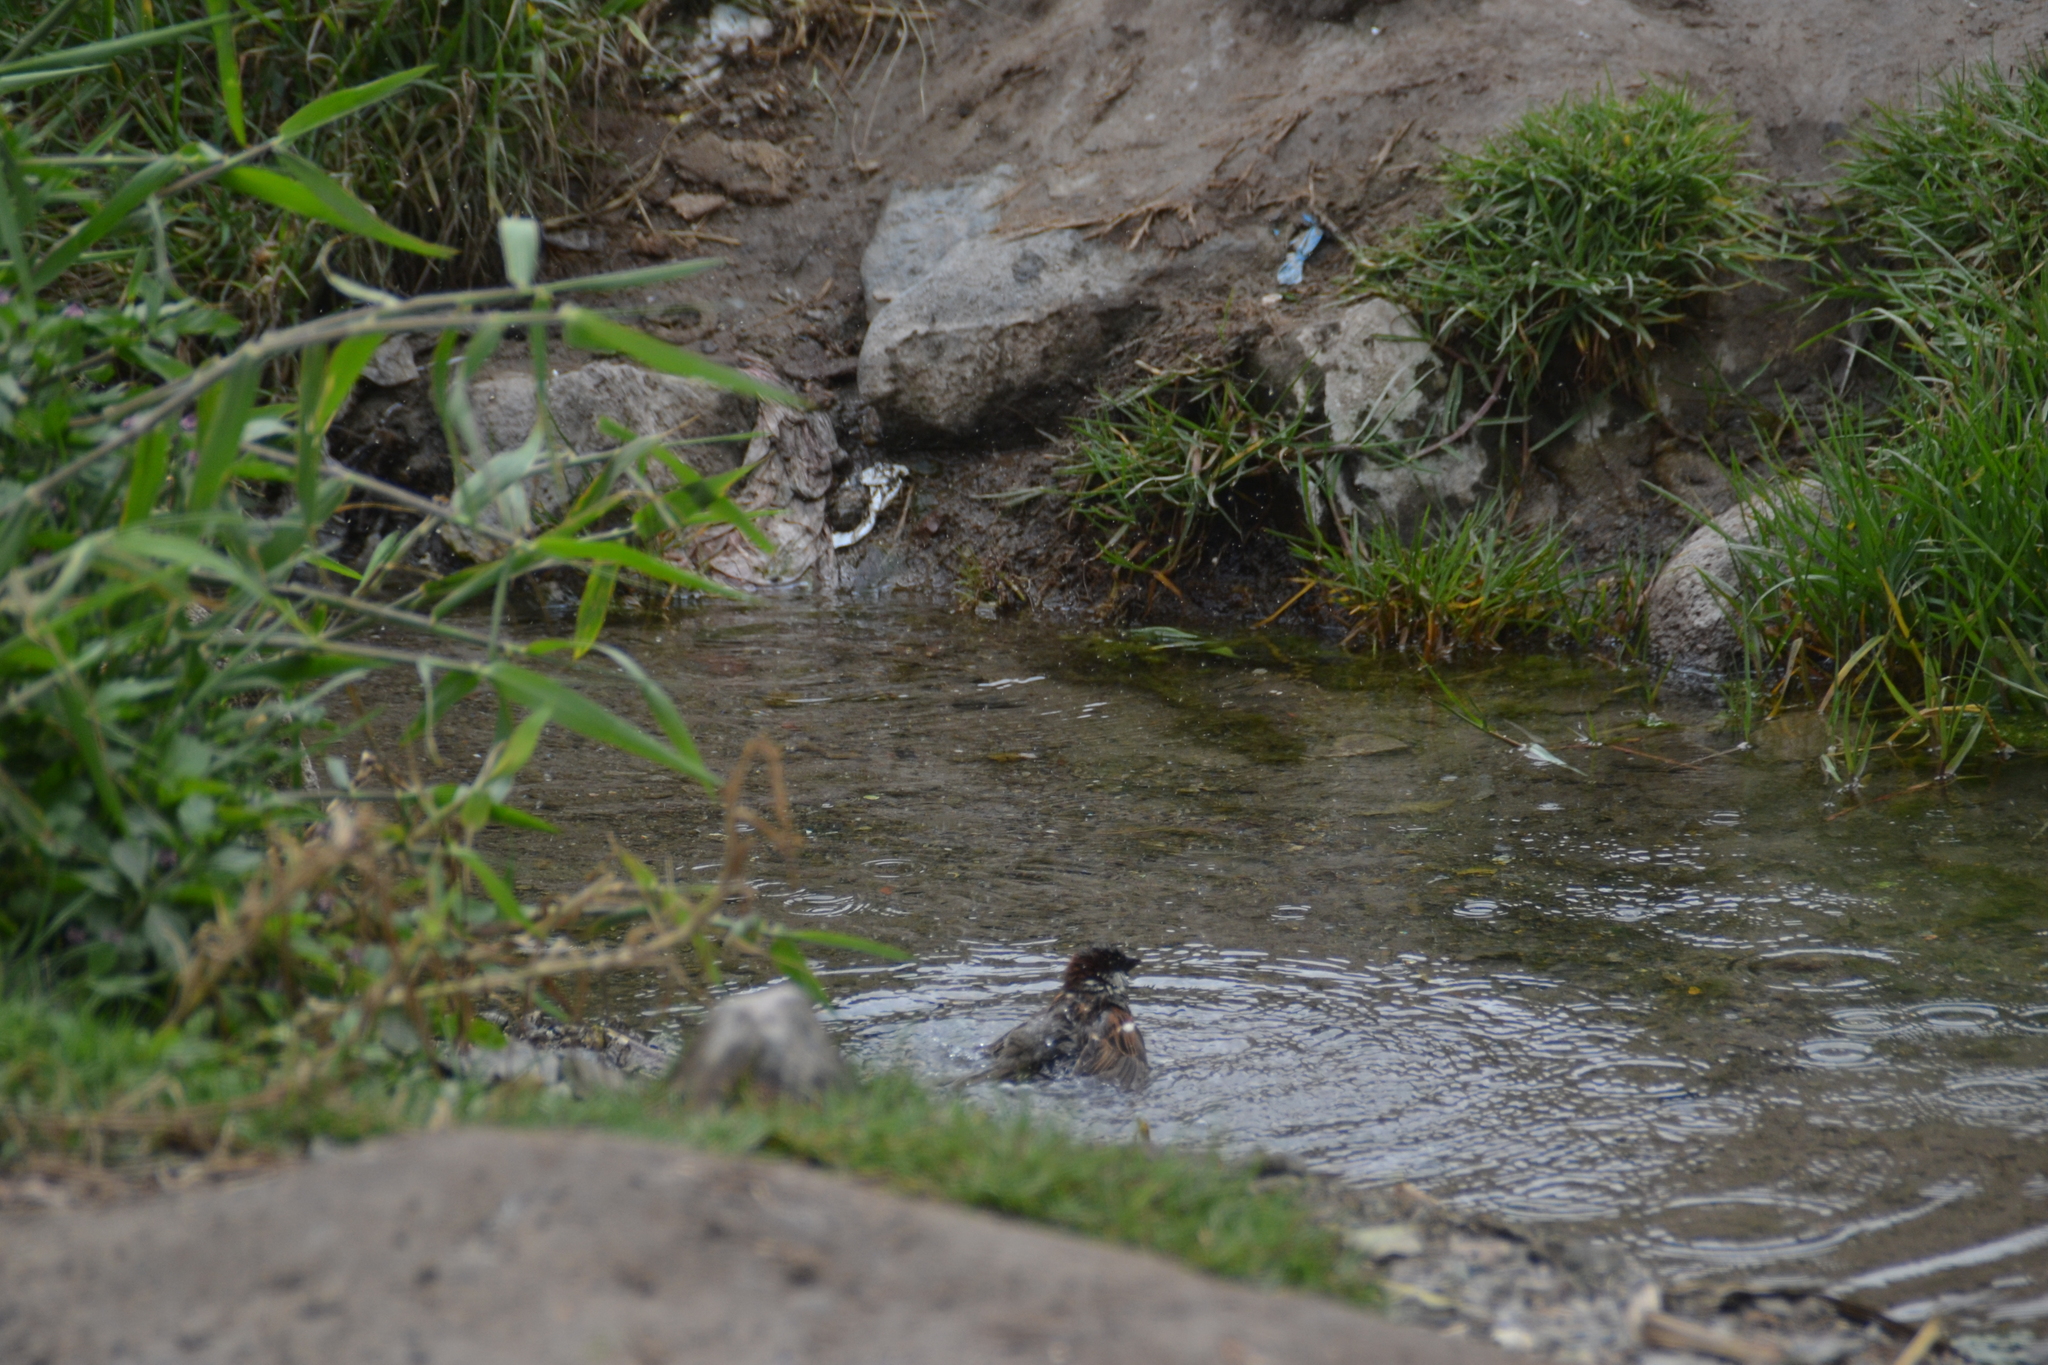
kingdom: Animalia
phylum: Chordata
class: Aves
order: Passeriformes
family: Passeridae
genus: Passer
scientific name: Passer domesticus
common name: House sparrow
